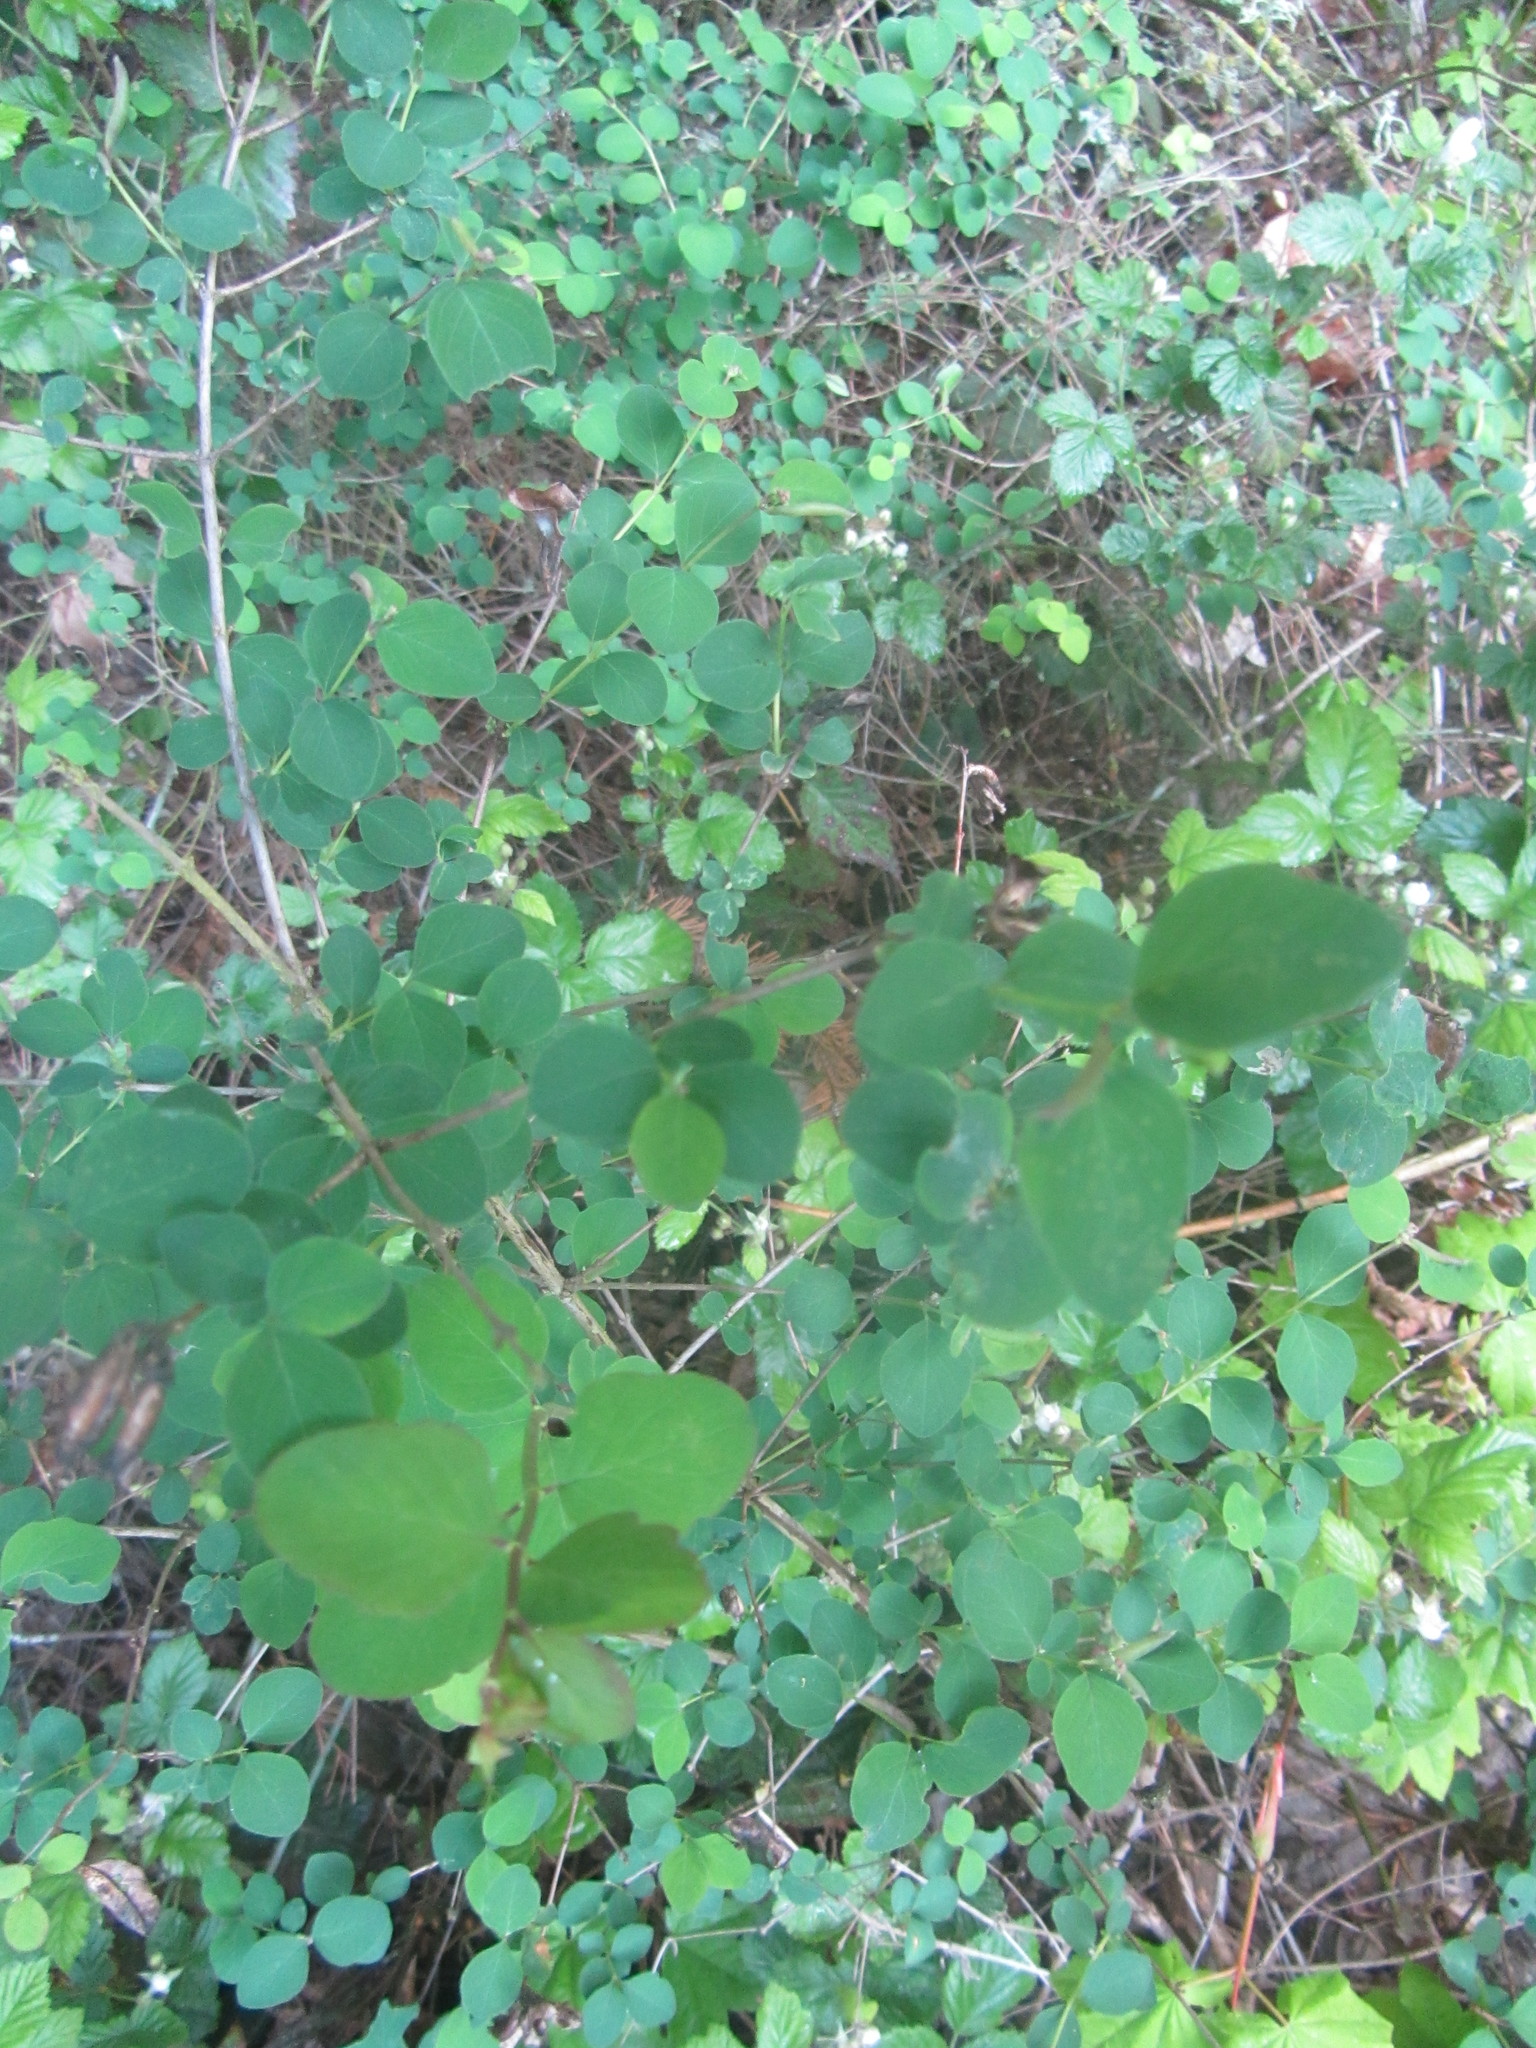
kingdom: Plantae
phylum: Tracheophyta
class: Magnoliopsida
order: Dipsacales
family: Caprifoliaceae
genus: Symphoricarpos
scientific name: Symphoricarpos albus
